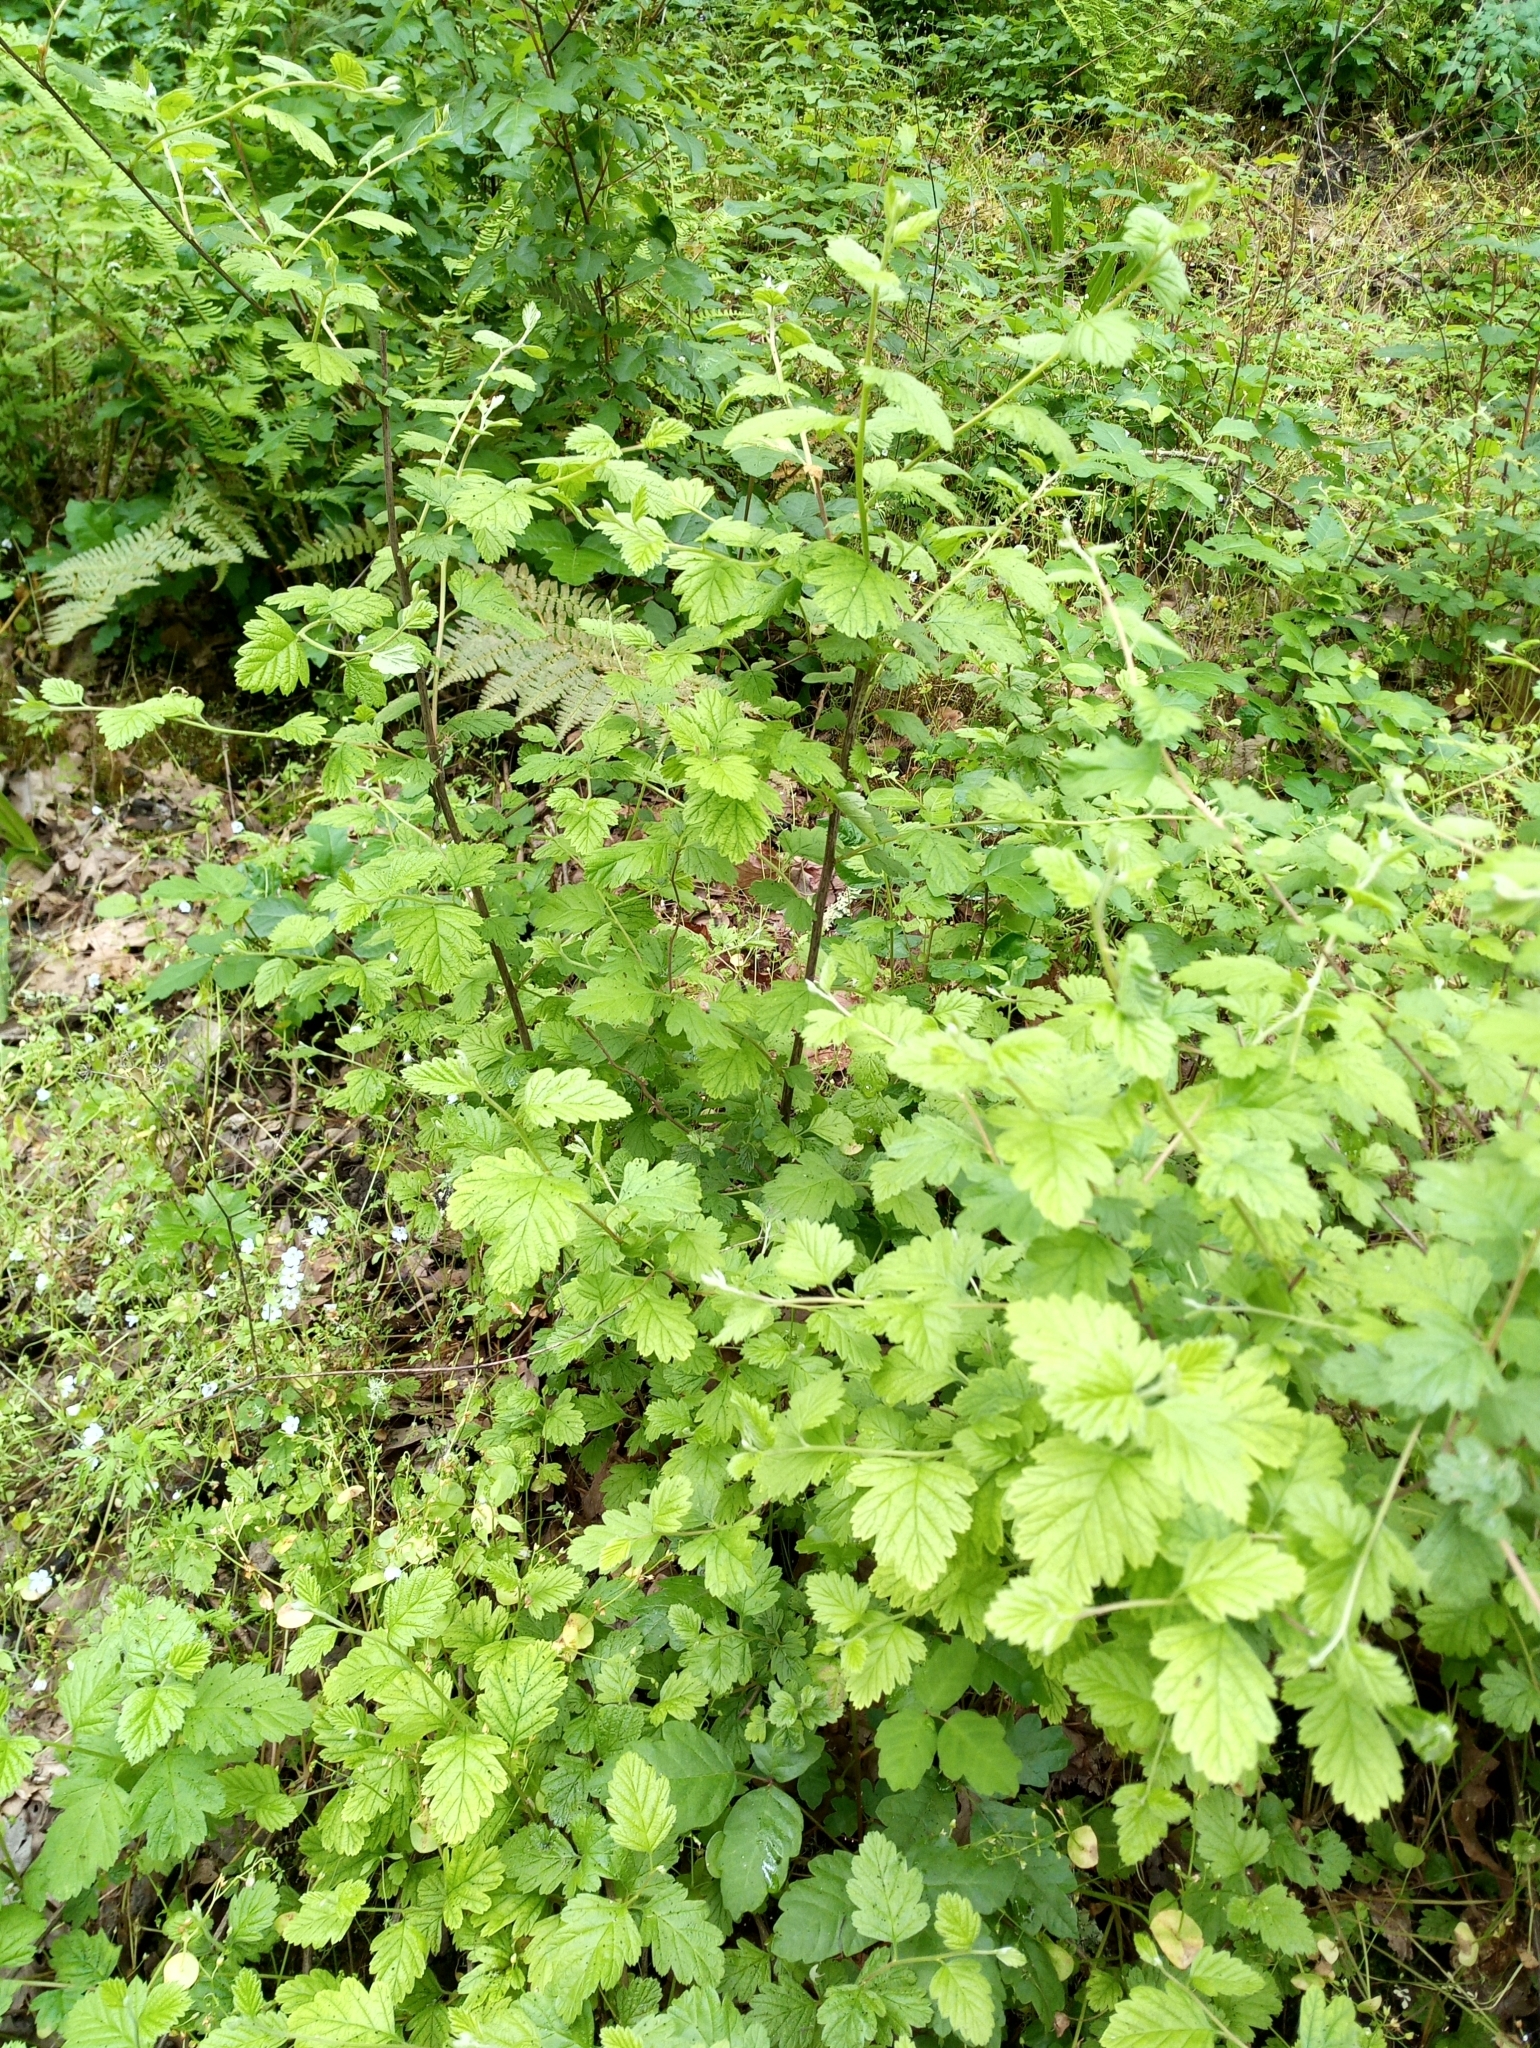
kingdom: Plantae
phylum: Tracheophyta
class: Magnoliopsida
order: Rosales
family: Rosaceae
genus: Holodiscus
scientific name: Holodiscus discolor
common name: Oceanspray
